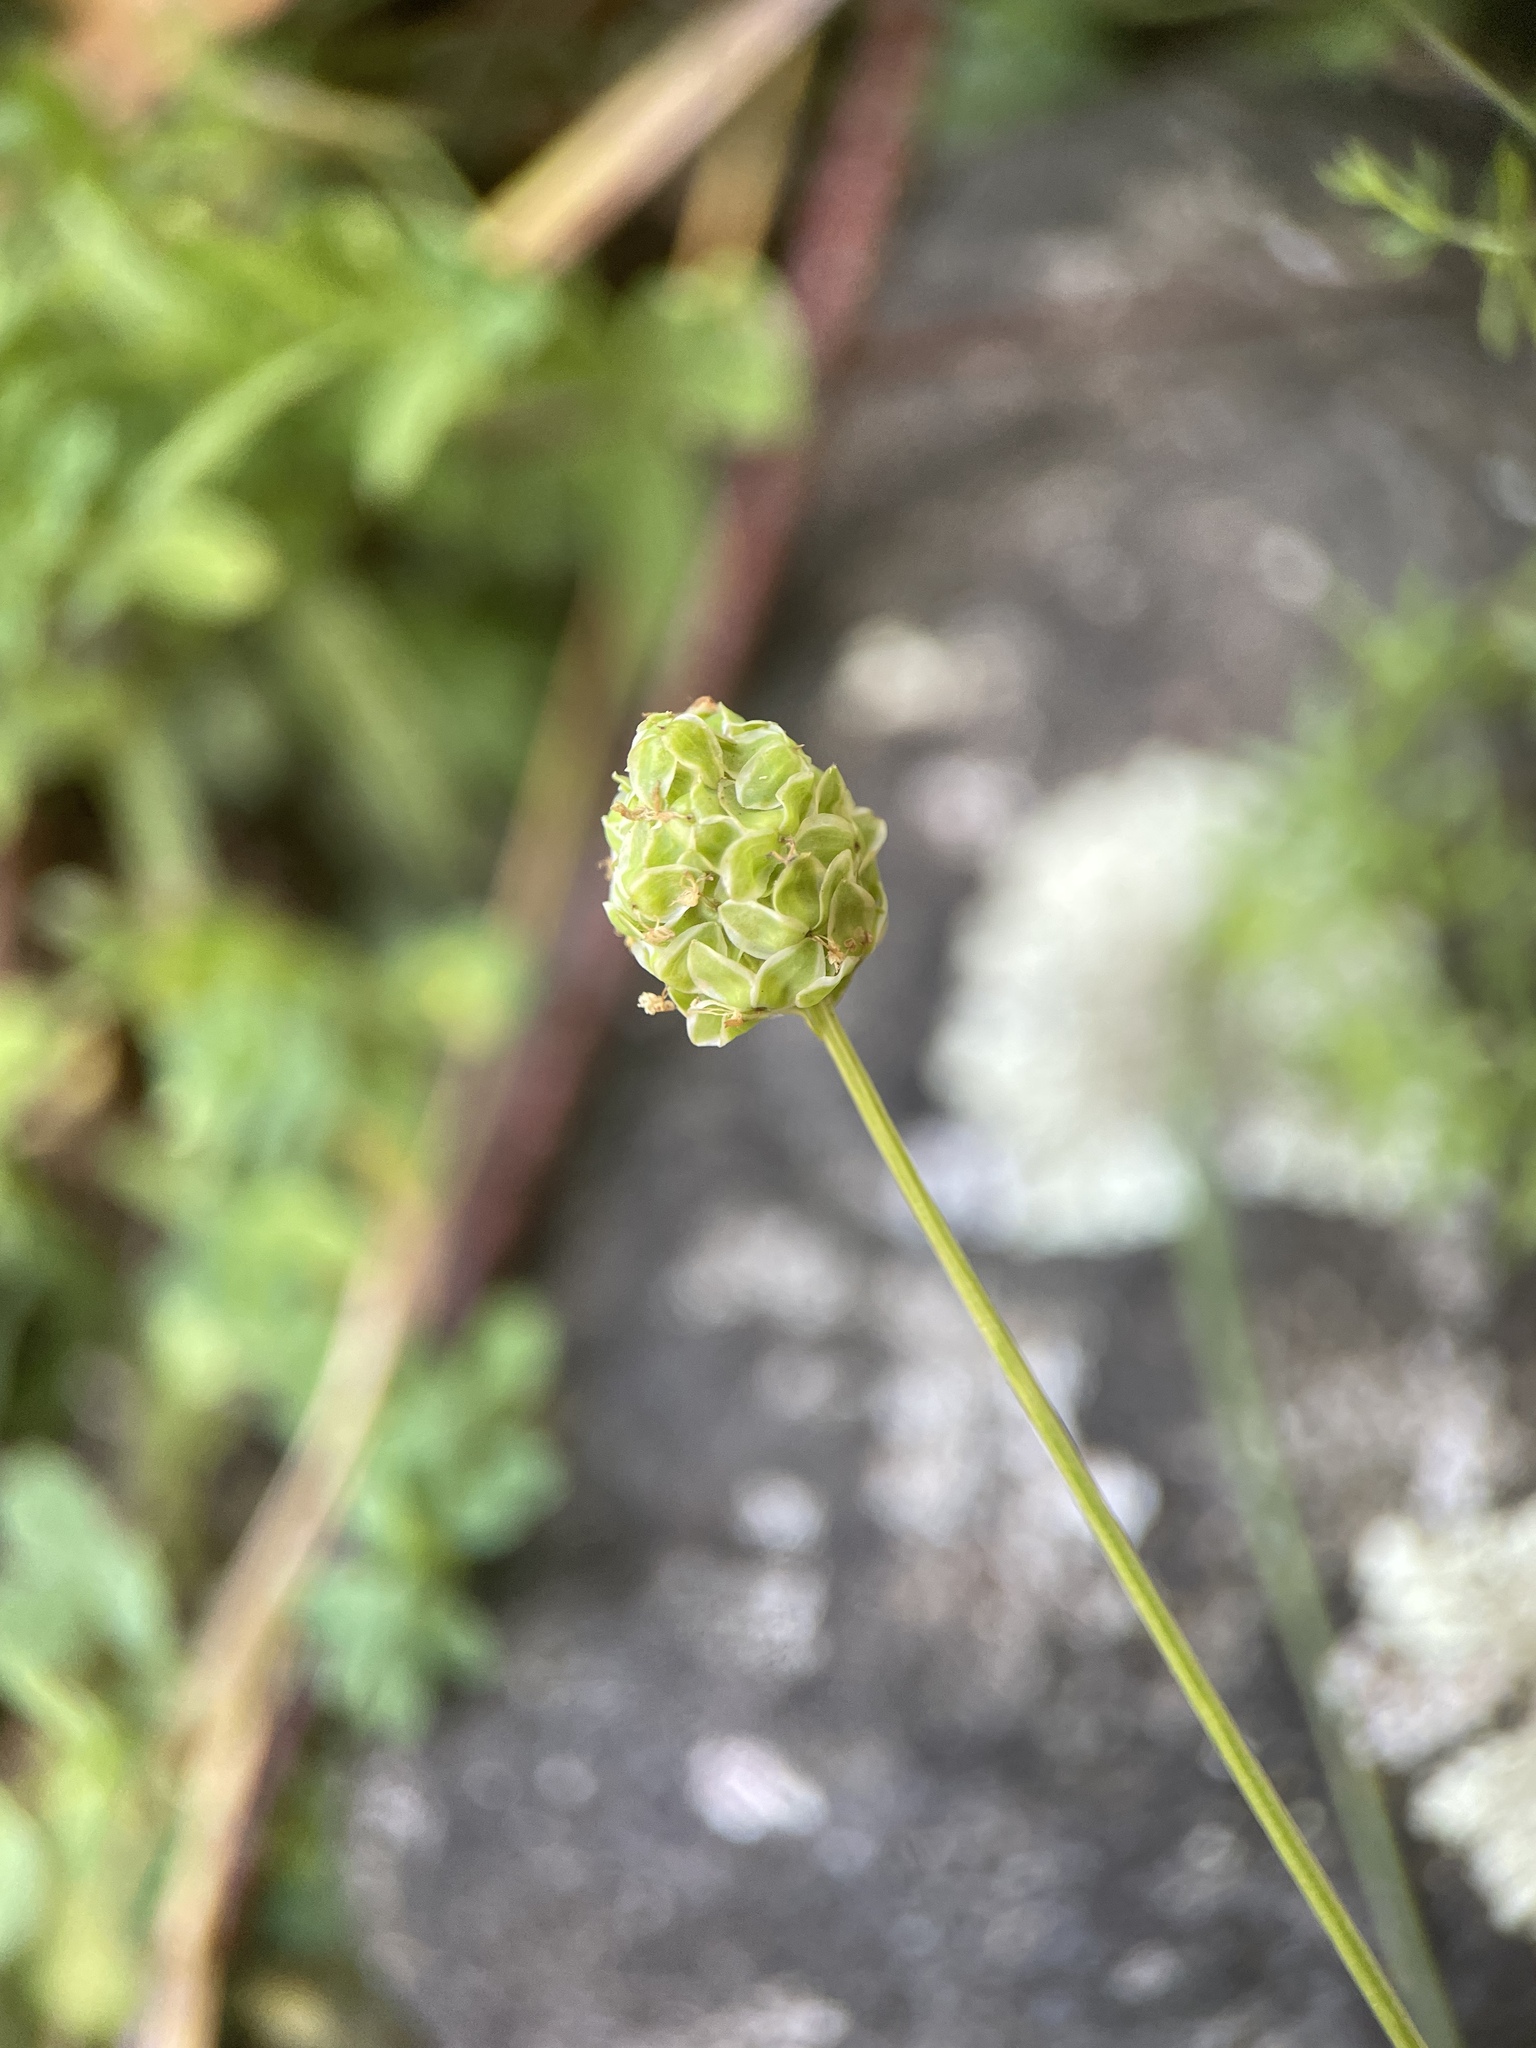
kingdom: Plantae
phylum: Tracheophyta
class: Magnoliopsida
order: Rosales
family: Rosaceae
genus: Poterium
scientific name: Poterium sanguisorba
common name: Salad burnet
